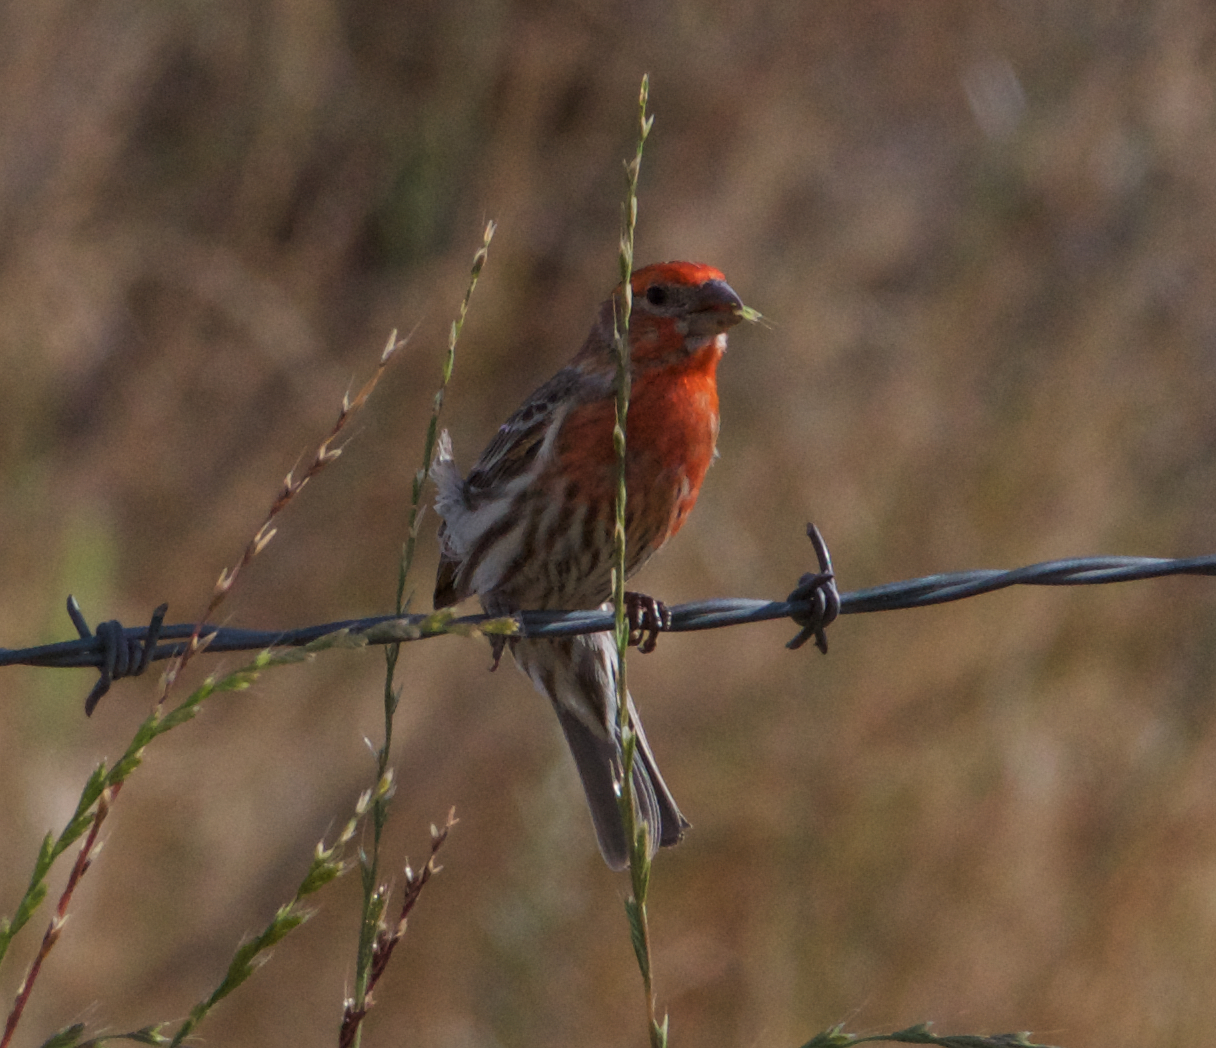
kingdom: Animalia
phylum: Chordata
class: Aves
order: Passeriformes
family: Fringillidae
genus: Haemorhous
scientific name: Haemorhous mexicanus
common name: House finch
